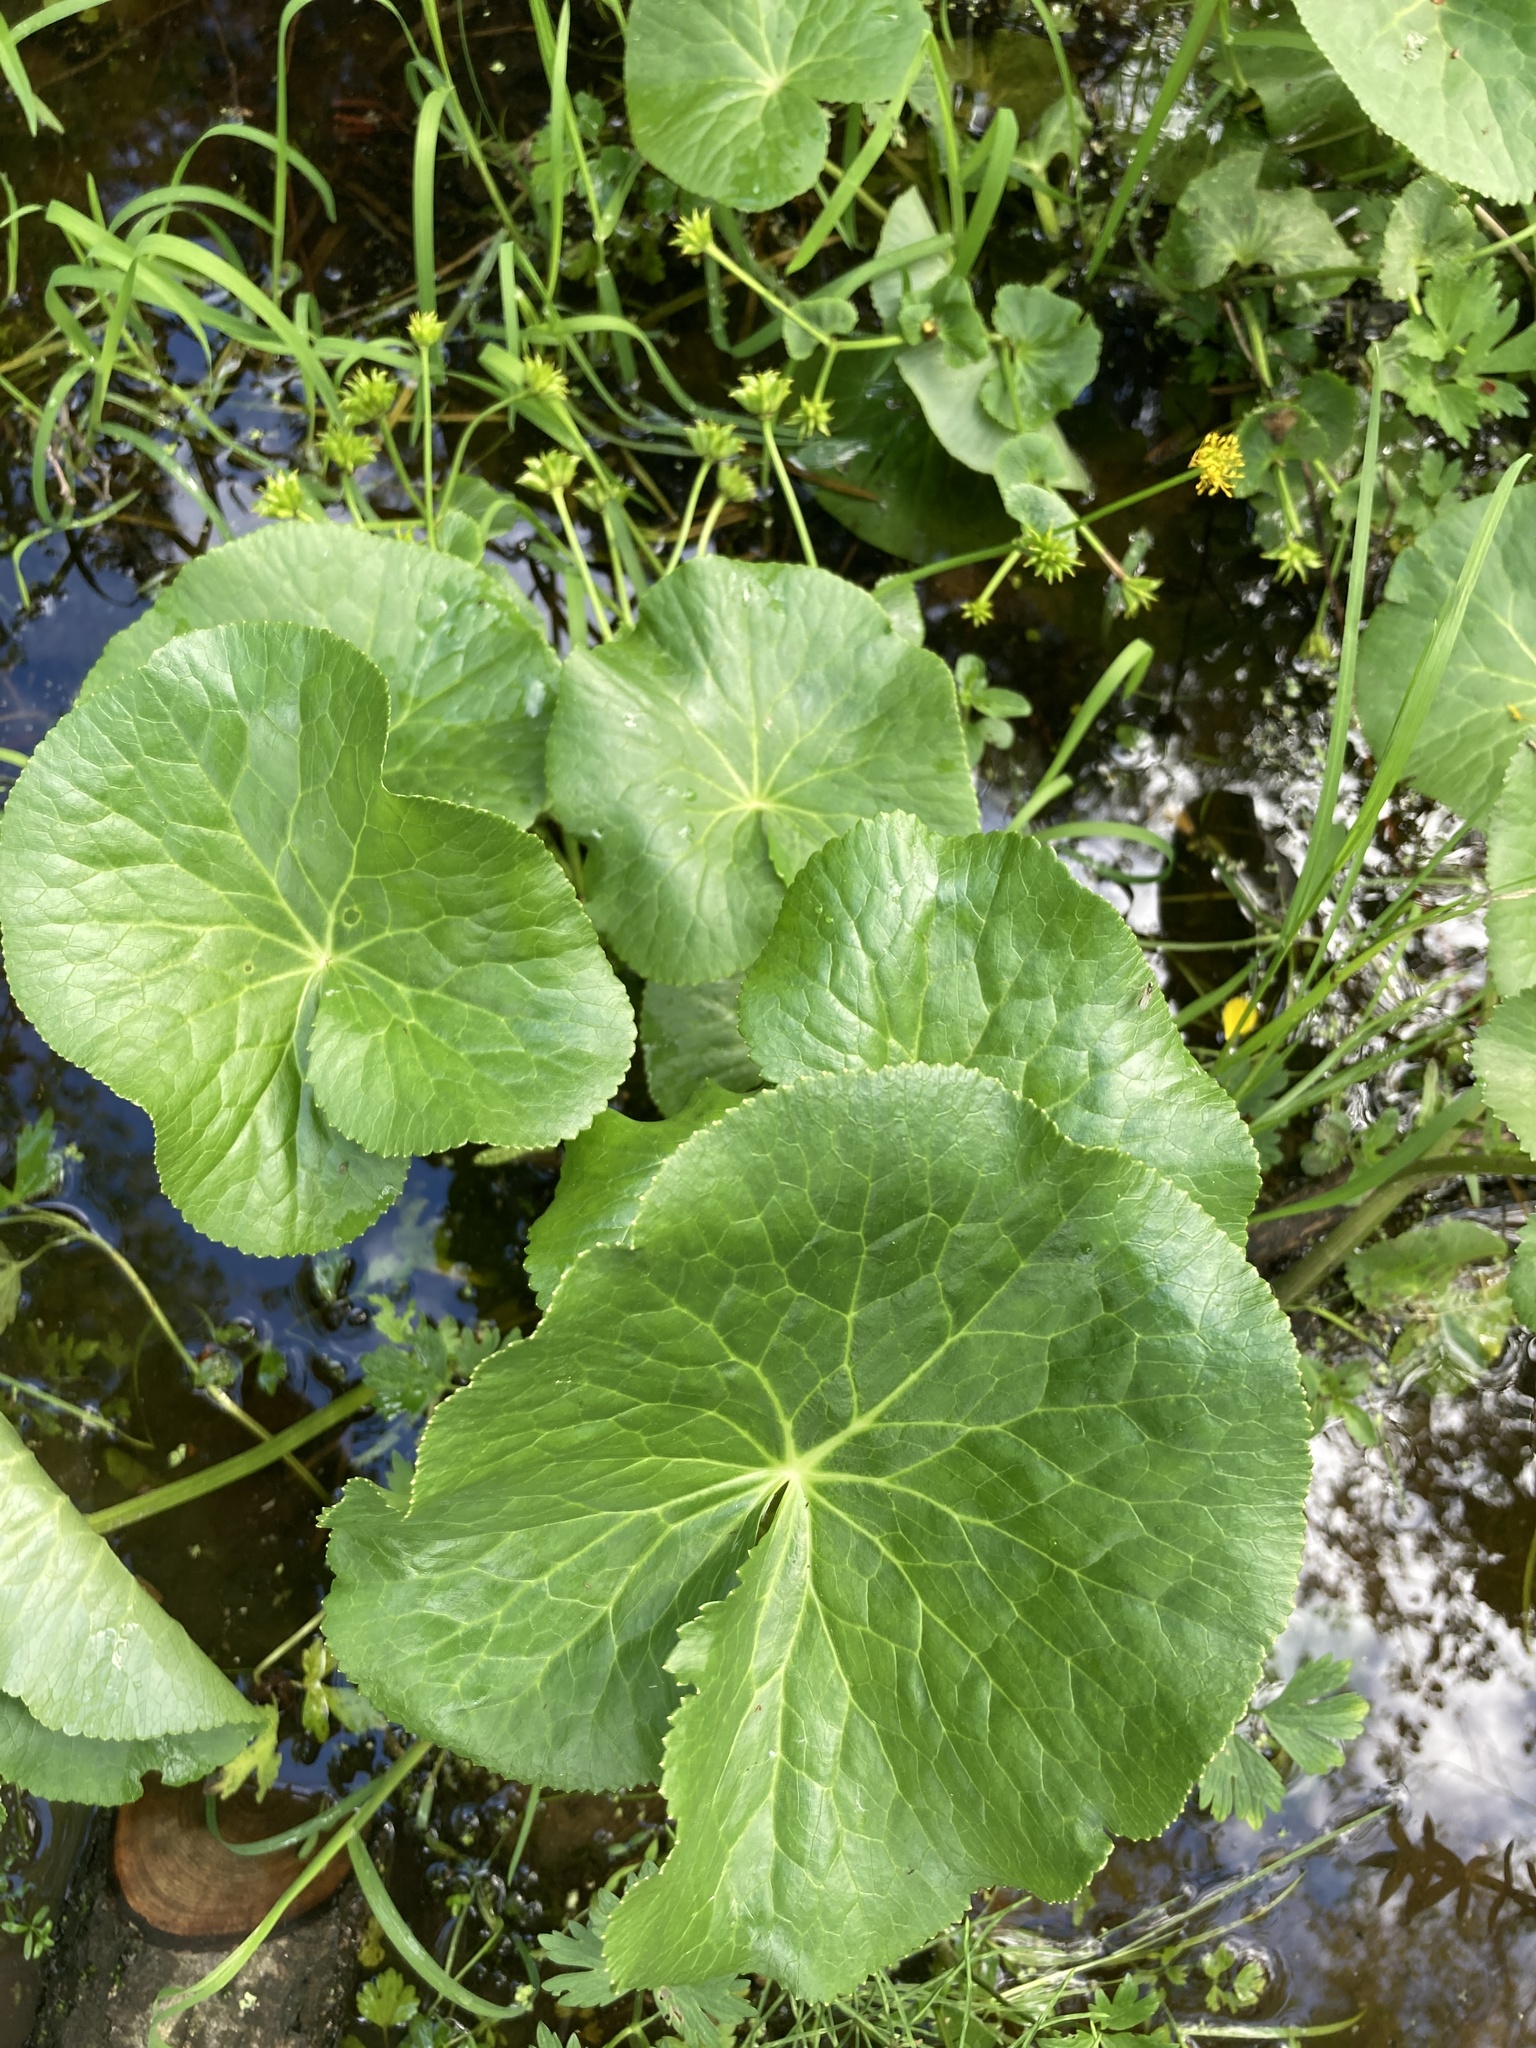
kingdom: Plantae
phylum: Tracheophyta
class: Magnoliopsida
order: Ranunculales
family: Ranunculaceae
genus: Caltha
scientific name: Caltha palustris
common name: Marsh marigold
